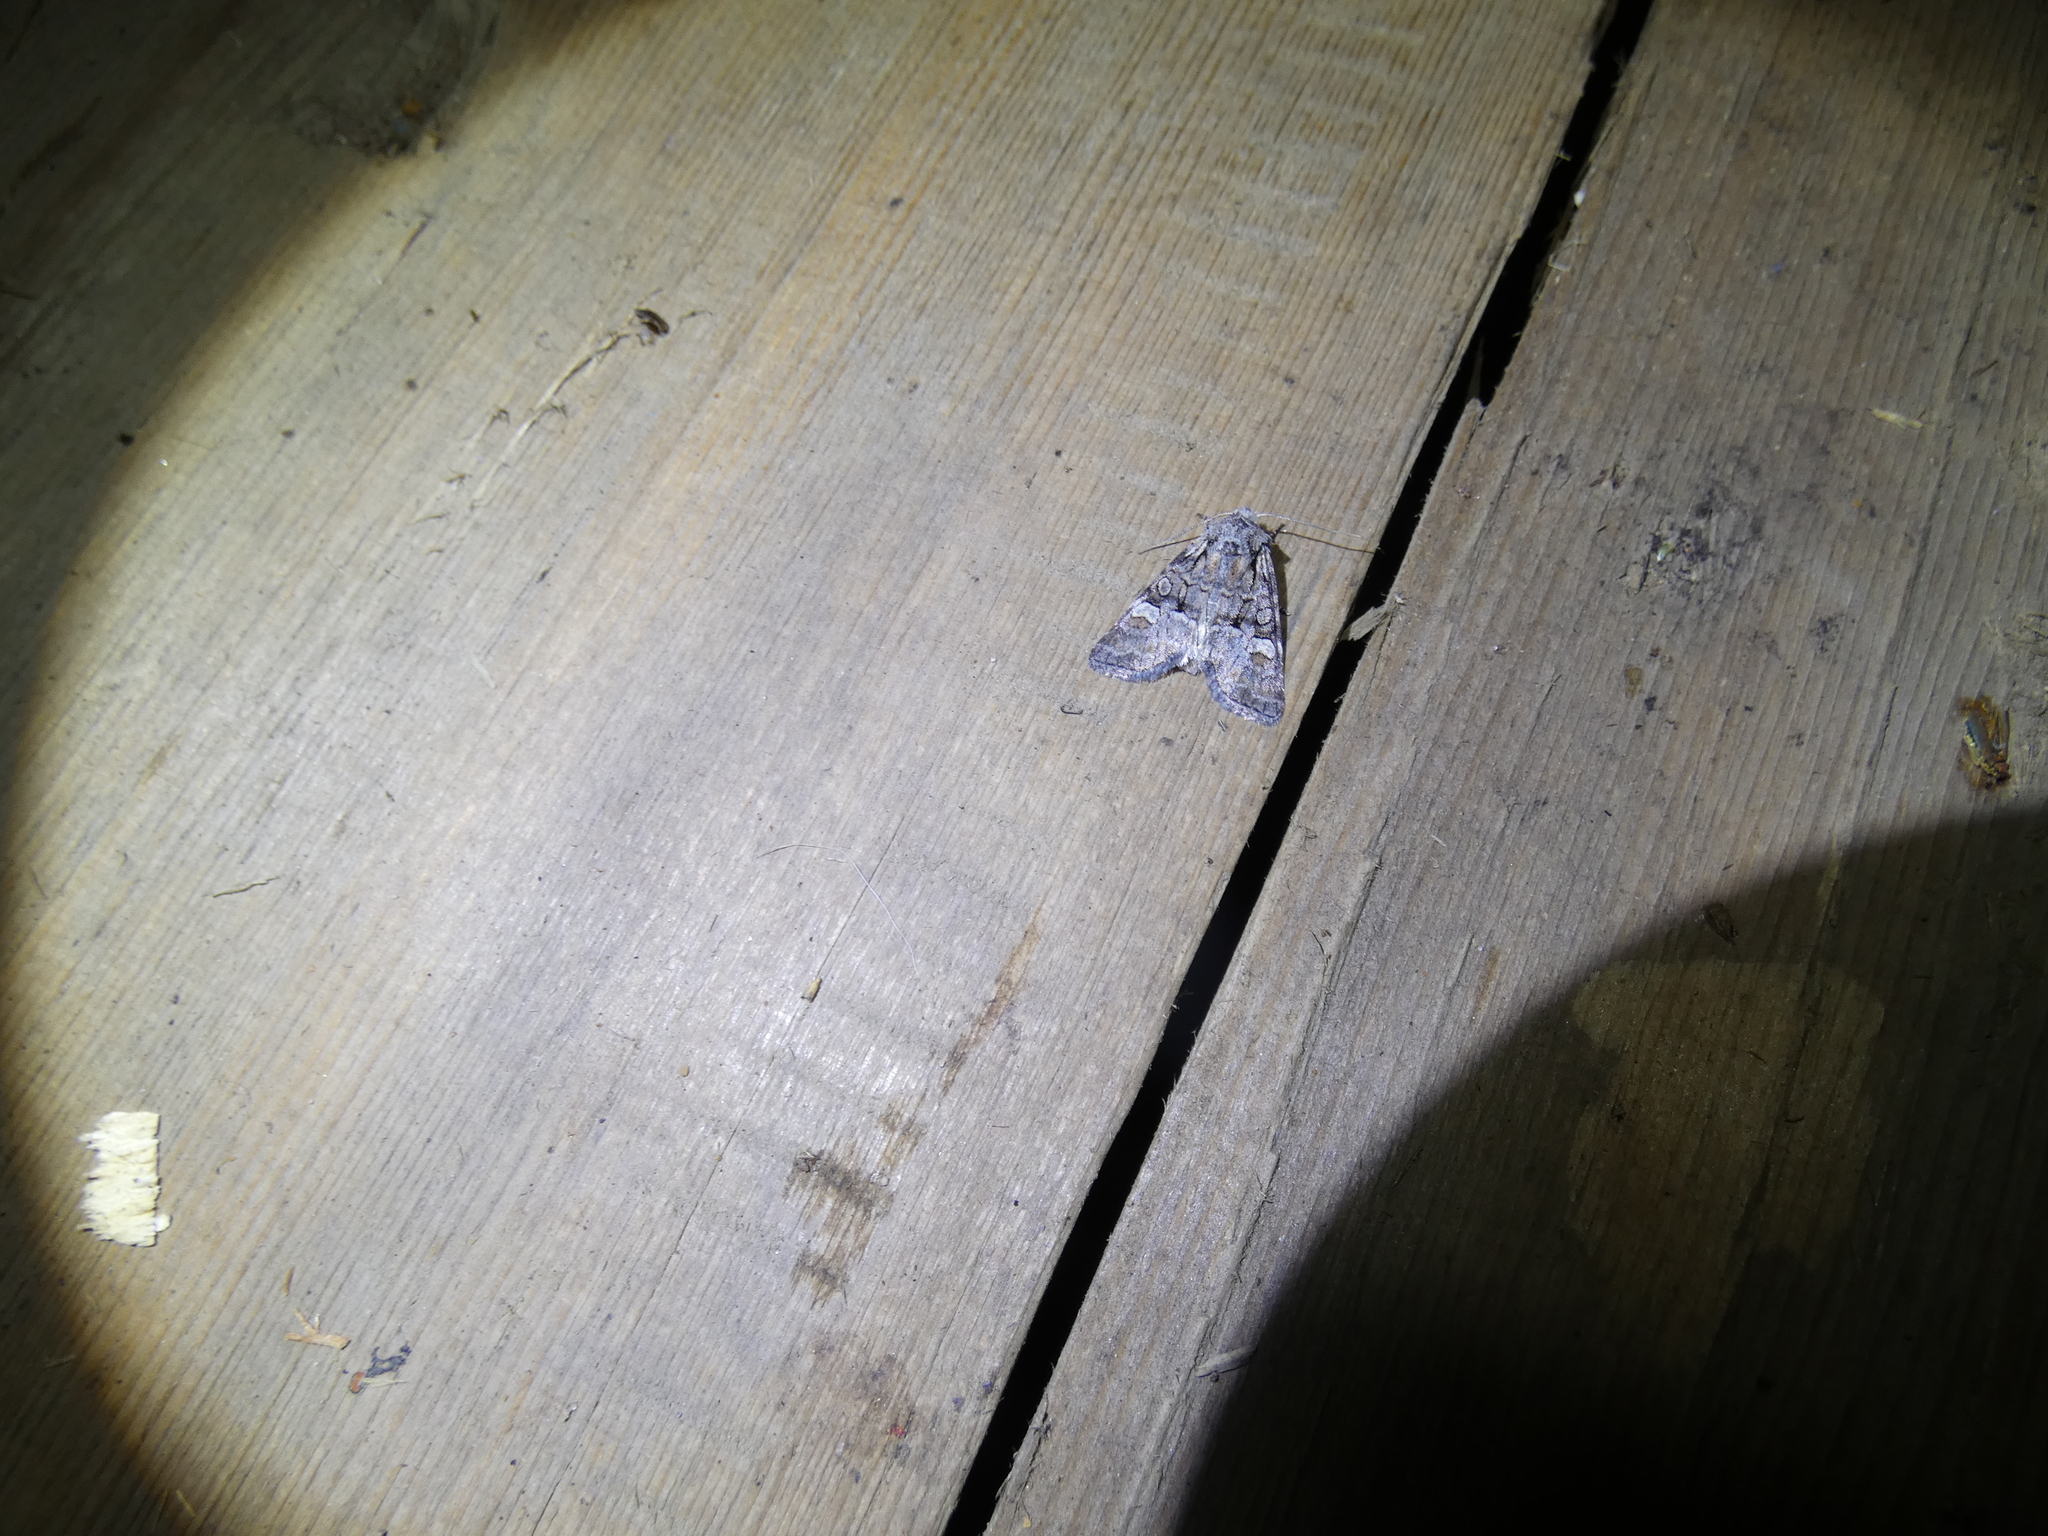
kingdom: Animalia
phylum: Arthropoda
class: Insecta
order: Lepidoptera
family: Noctuidae
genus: Brachylomia
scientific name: Brachylomia viminalis
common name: Minor shoulder-knot
